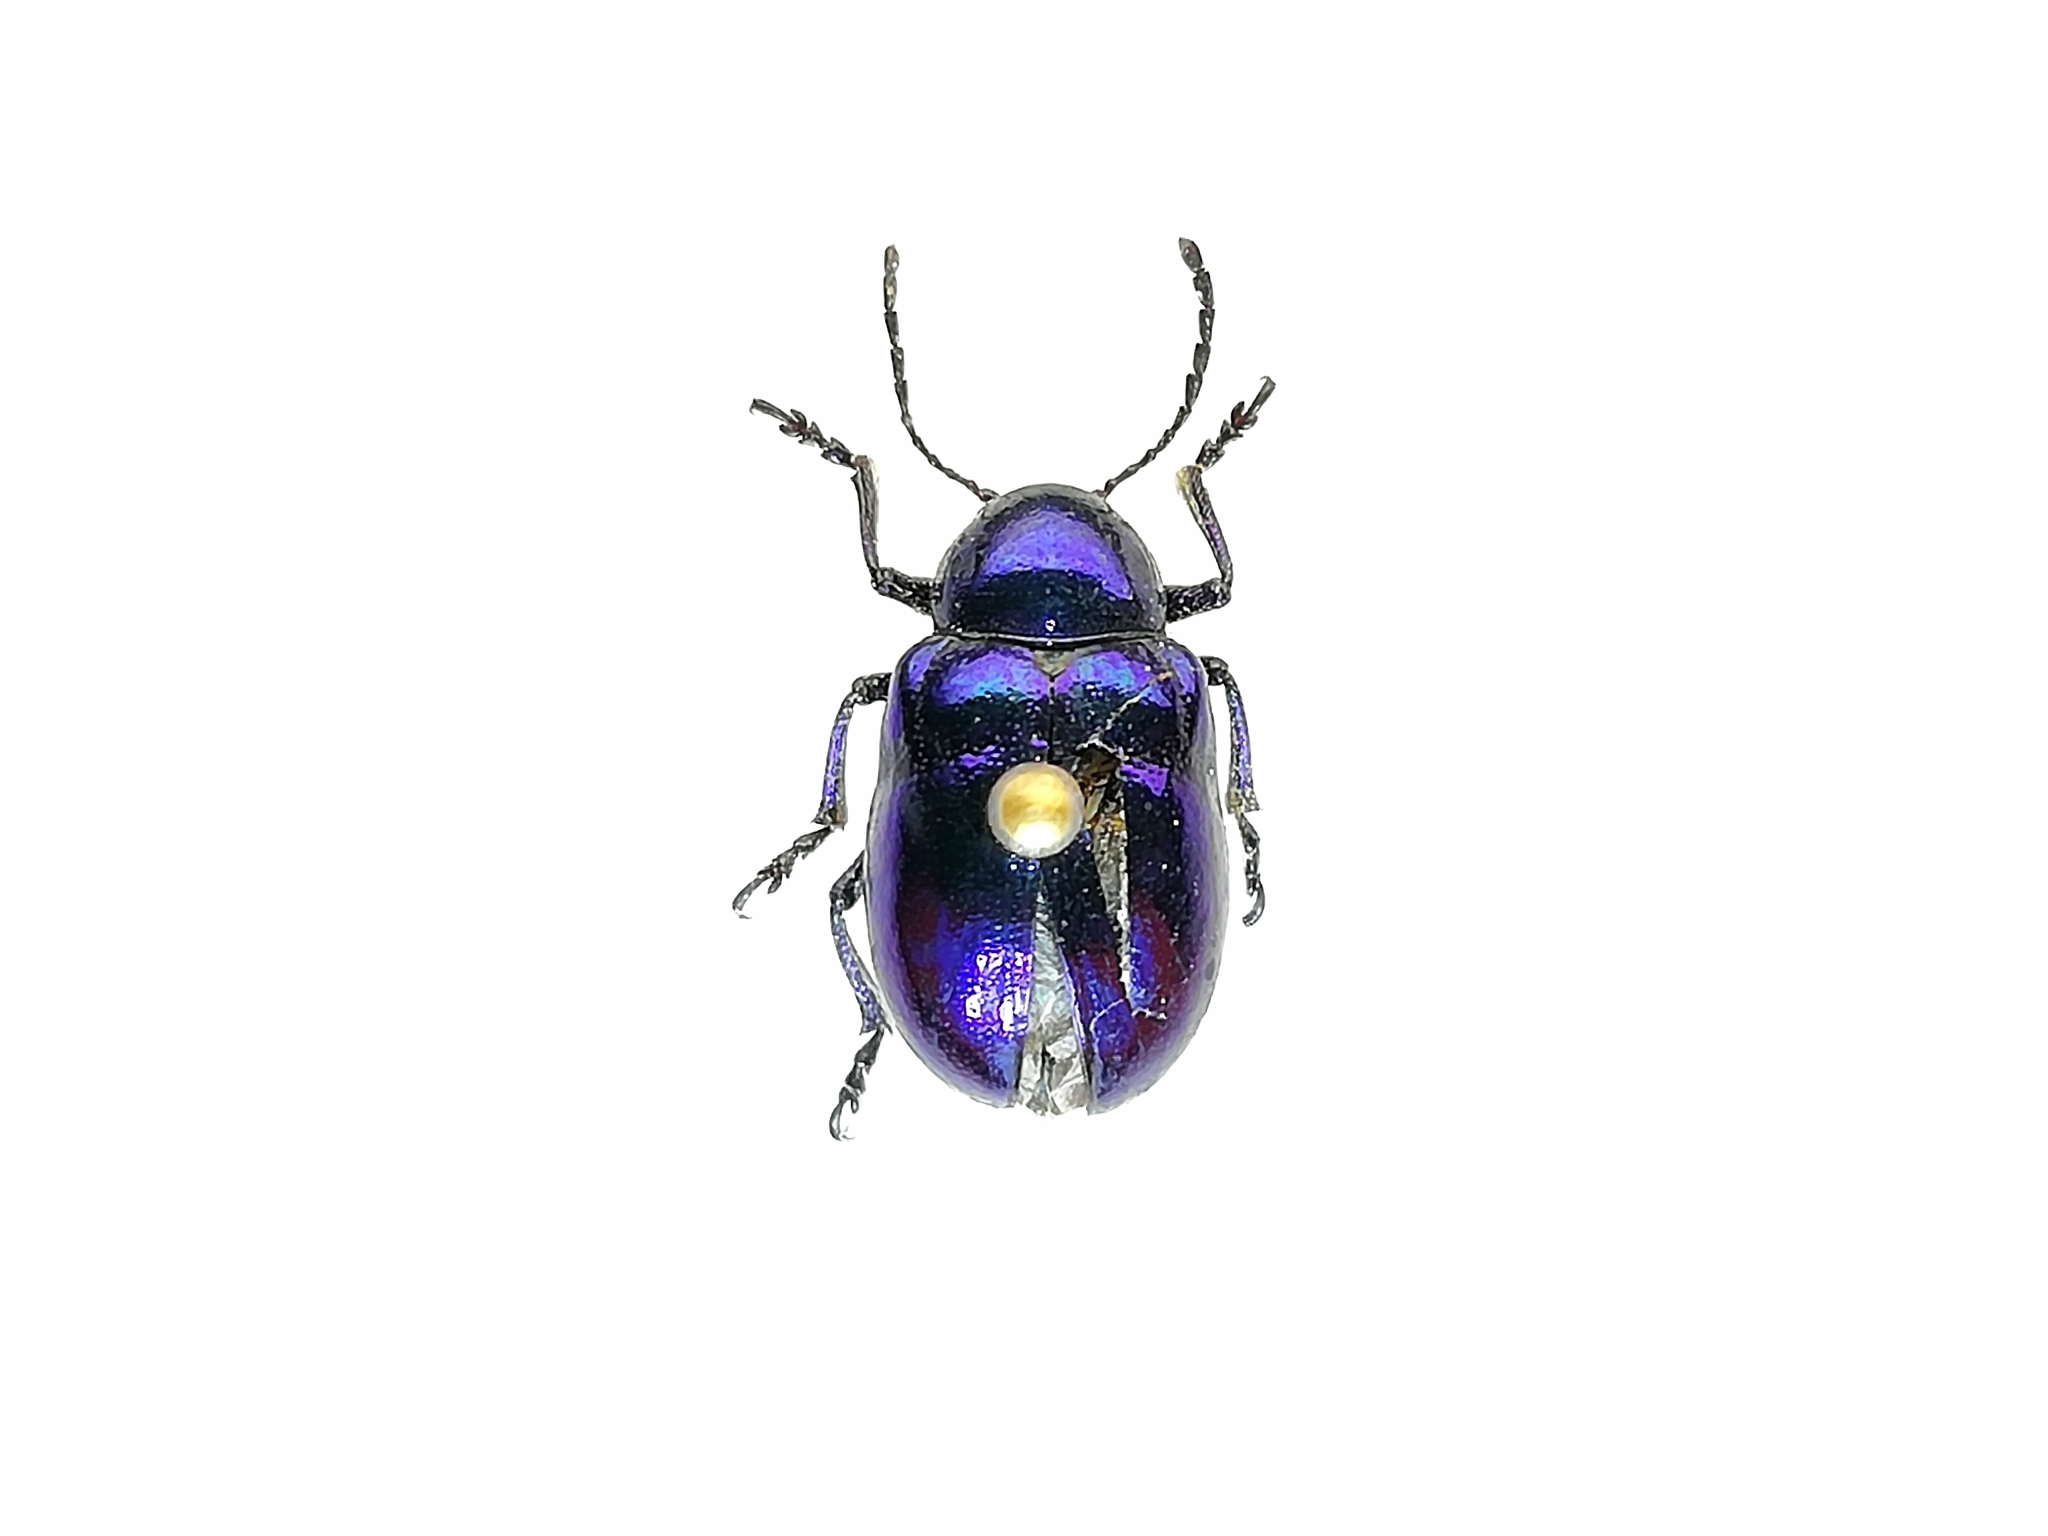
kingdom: Animalia
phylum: Arthropoda
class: Insecta
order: Coleoptera
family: Chrysomelidae
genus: Chrysochus
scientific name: Chrysochus asclepiadeus
